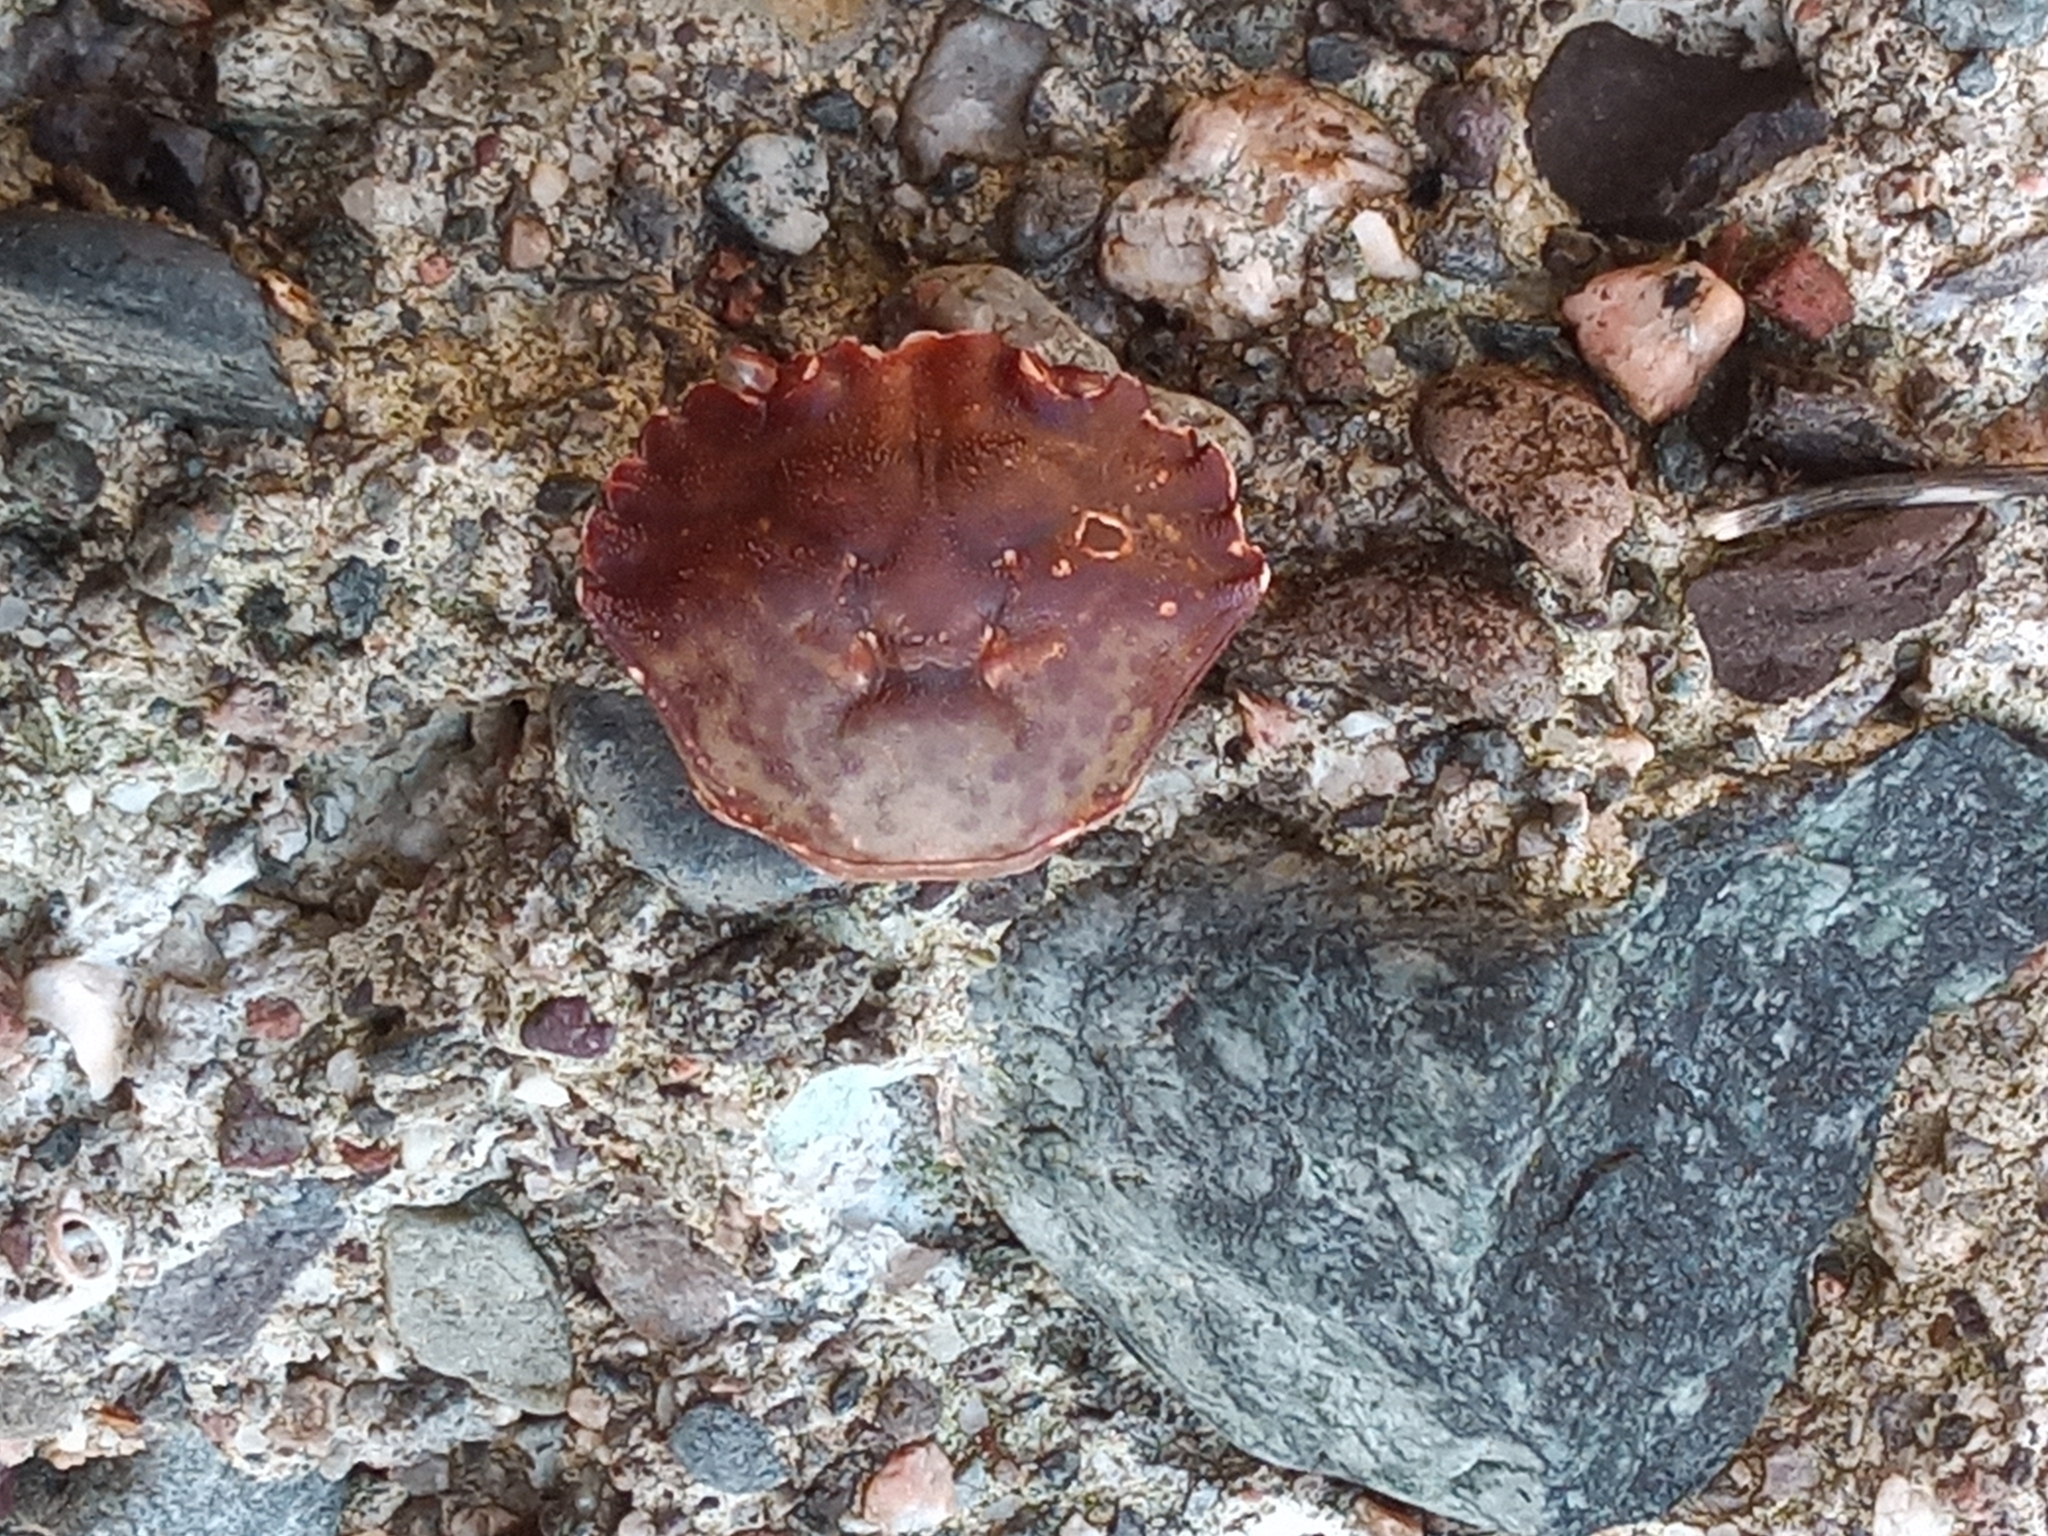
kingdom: Animalia
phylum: Arthropoda
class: Malacostraca
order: Decapoda
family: Carcinidae
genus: Carcinus
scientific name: Carcinus maenas
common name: European green crab
